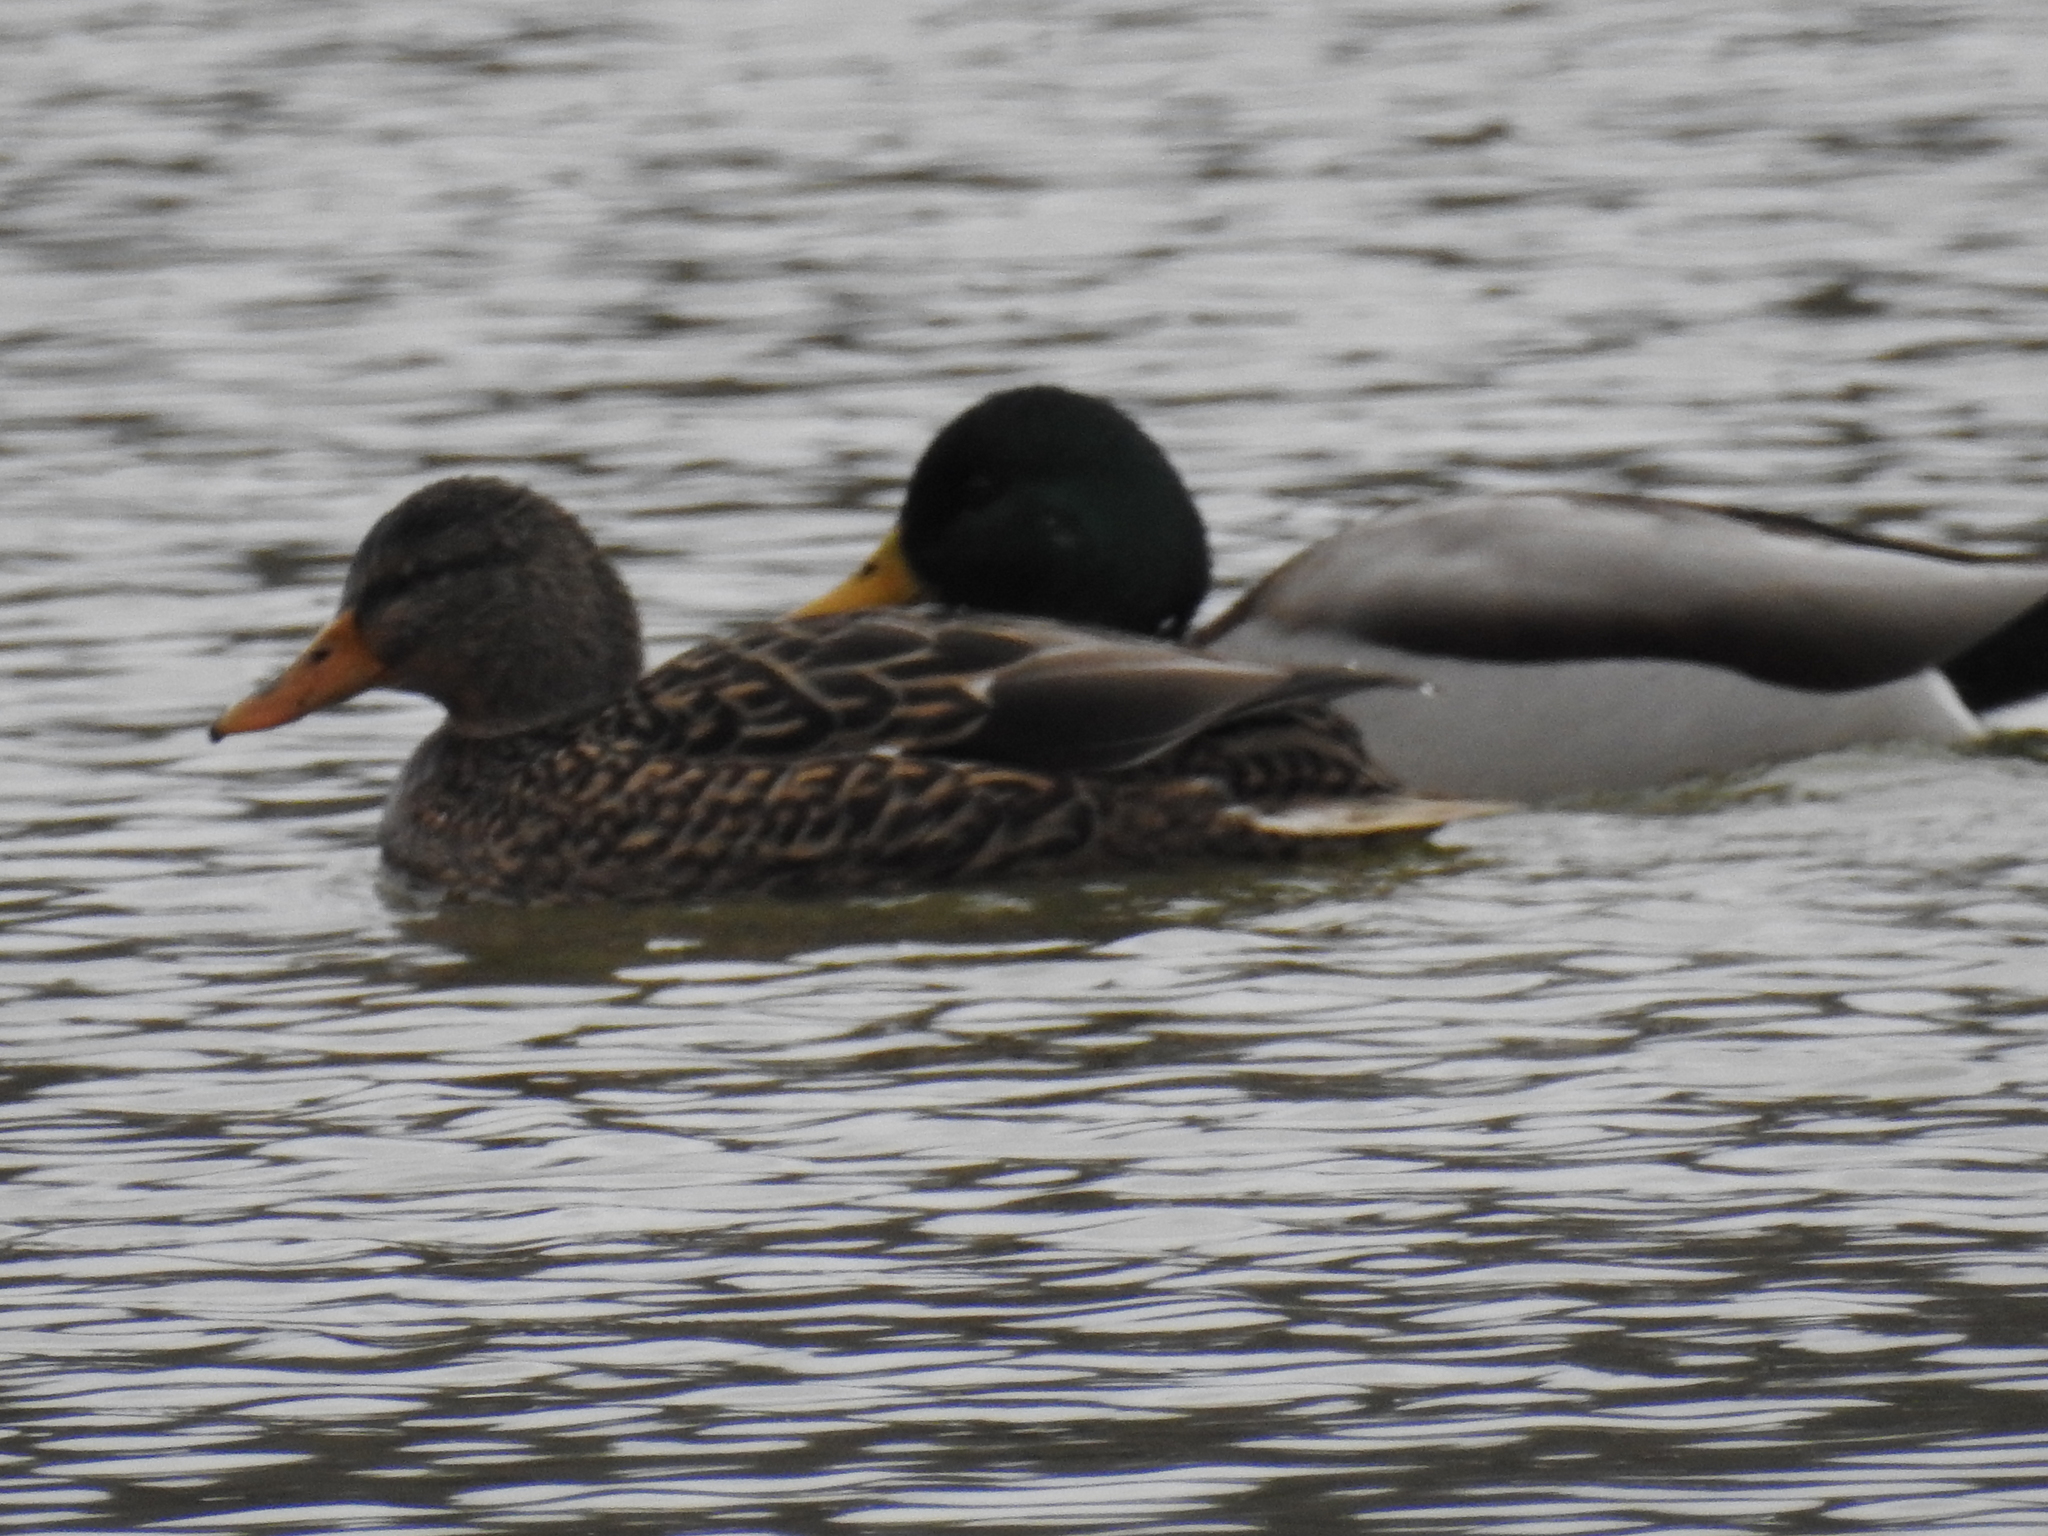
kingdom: Animalia
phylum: Chordata
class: Aves
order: Anseriformes
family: Anatidae
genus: Anas
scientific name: Anas platyrhynchos
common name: Mallard
